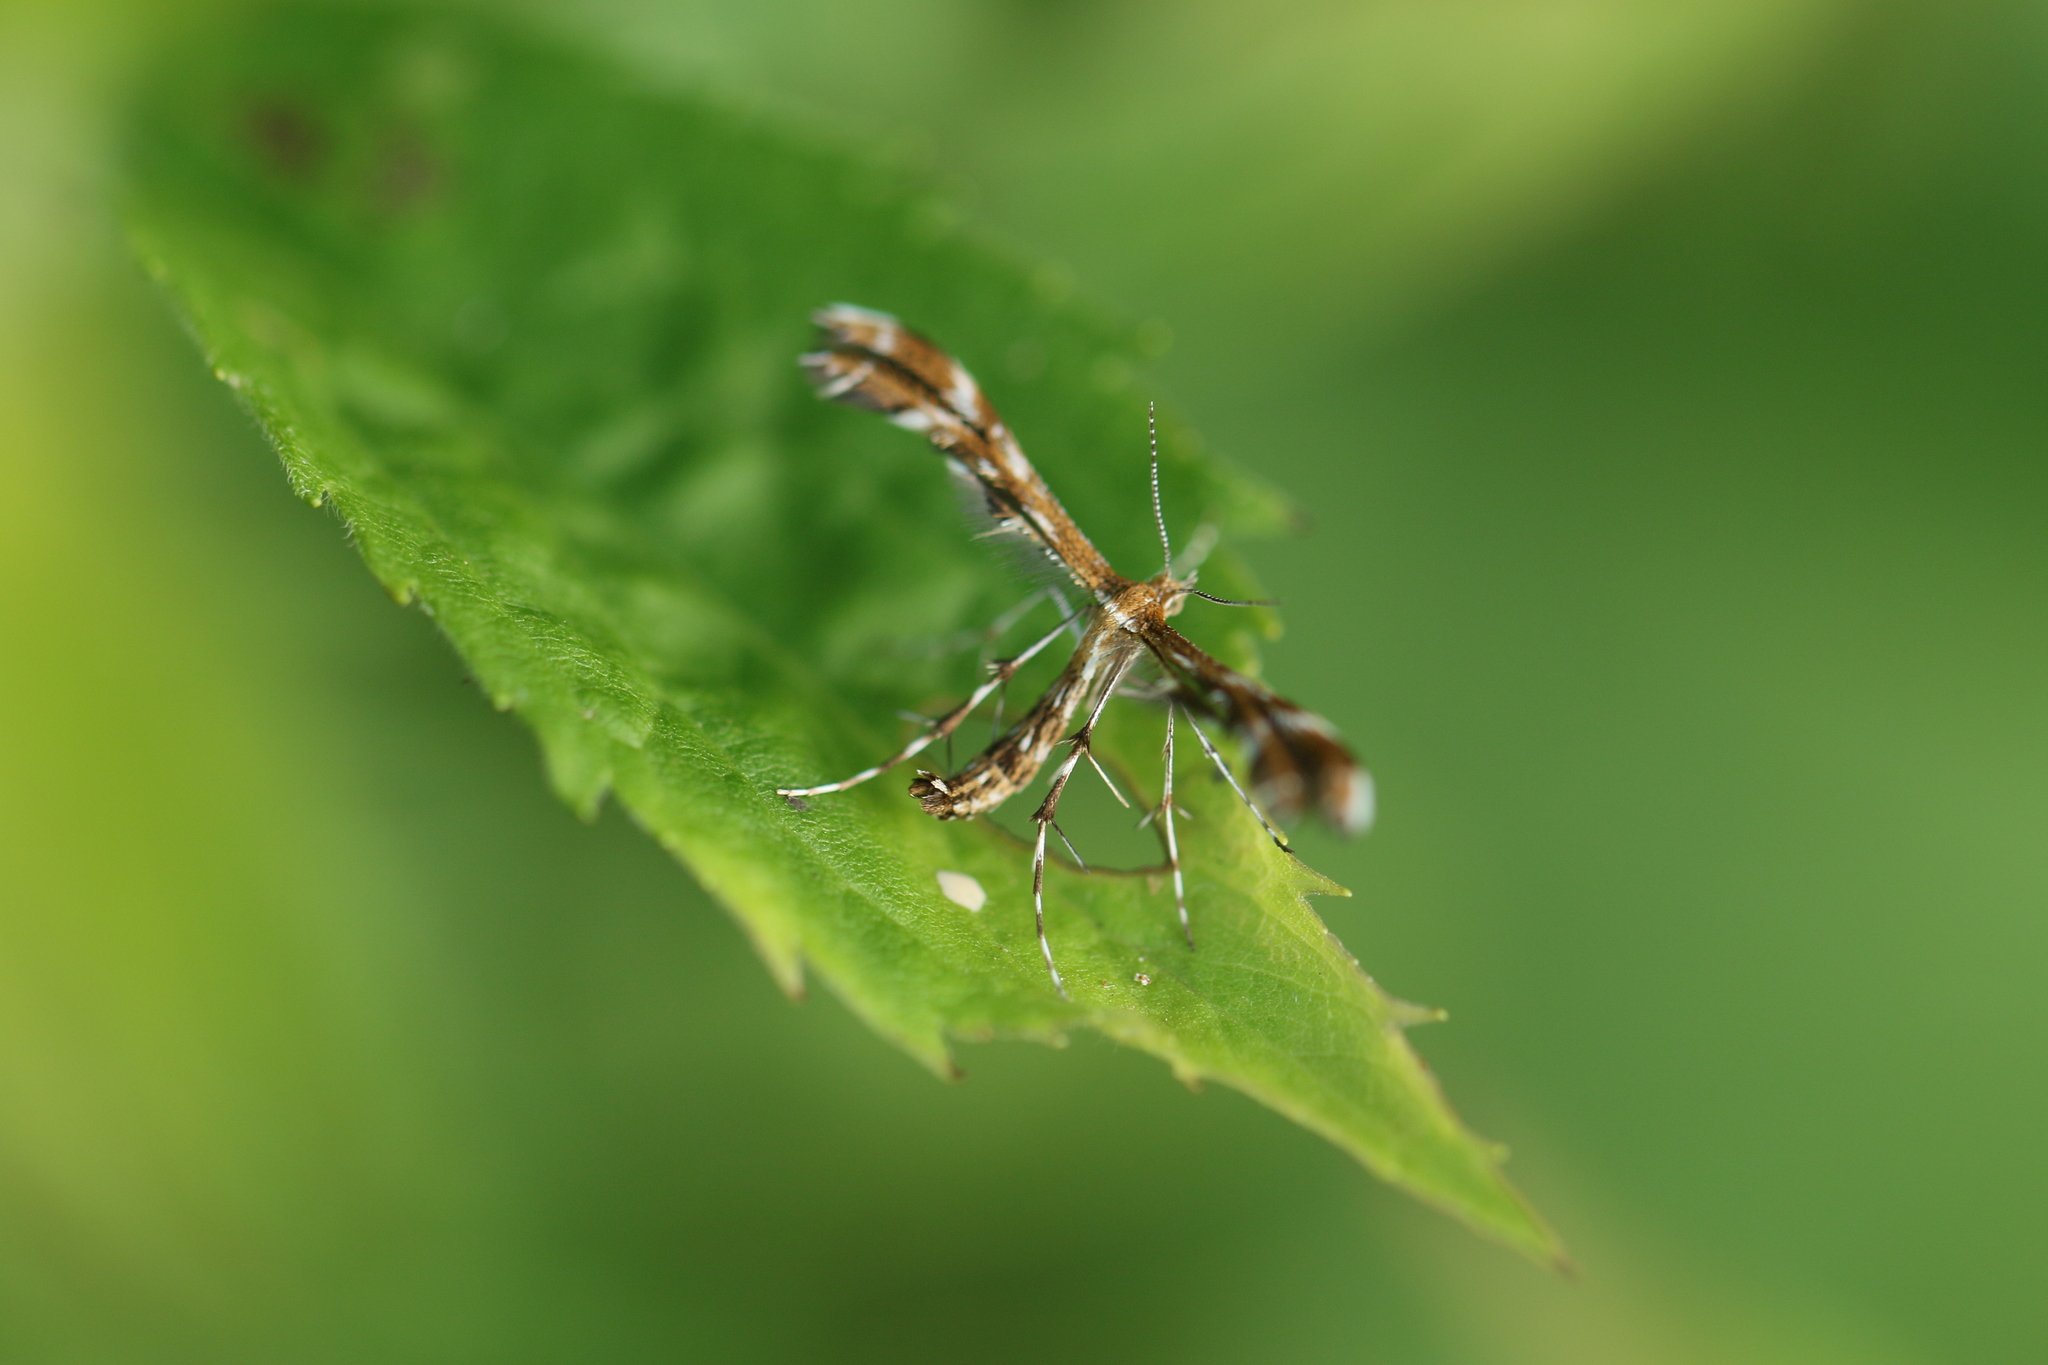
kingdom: Animalia
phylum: Arthropoda
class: Insecta
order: Lepidoptera
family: Pterophoridae
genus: Dejongia
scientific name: Dejongia lobidactylus
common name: Lobed plume moth
